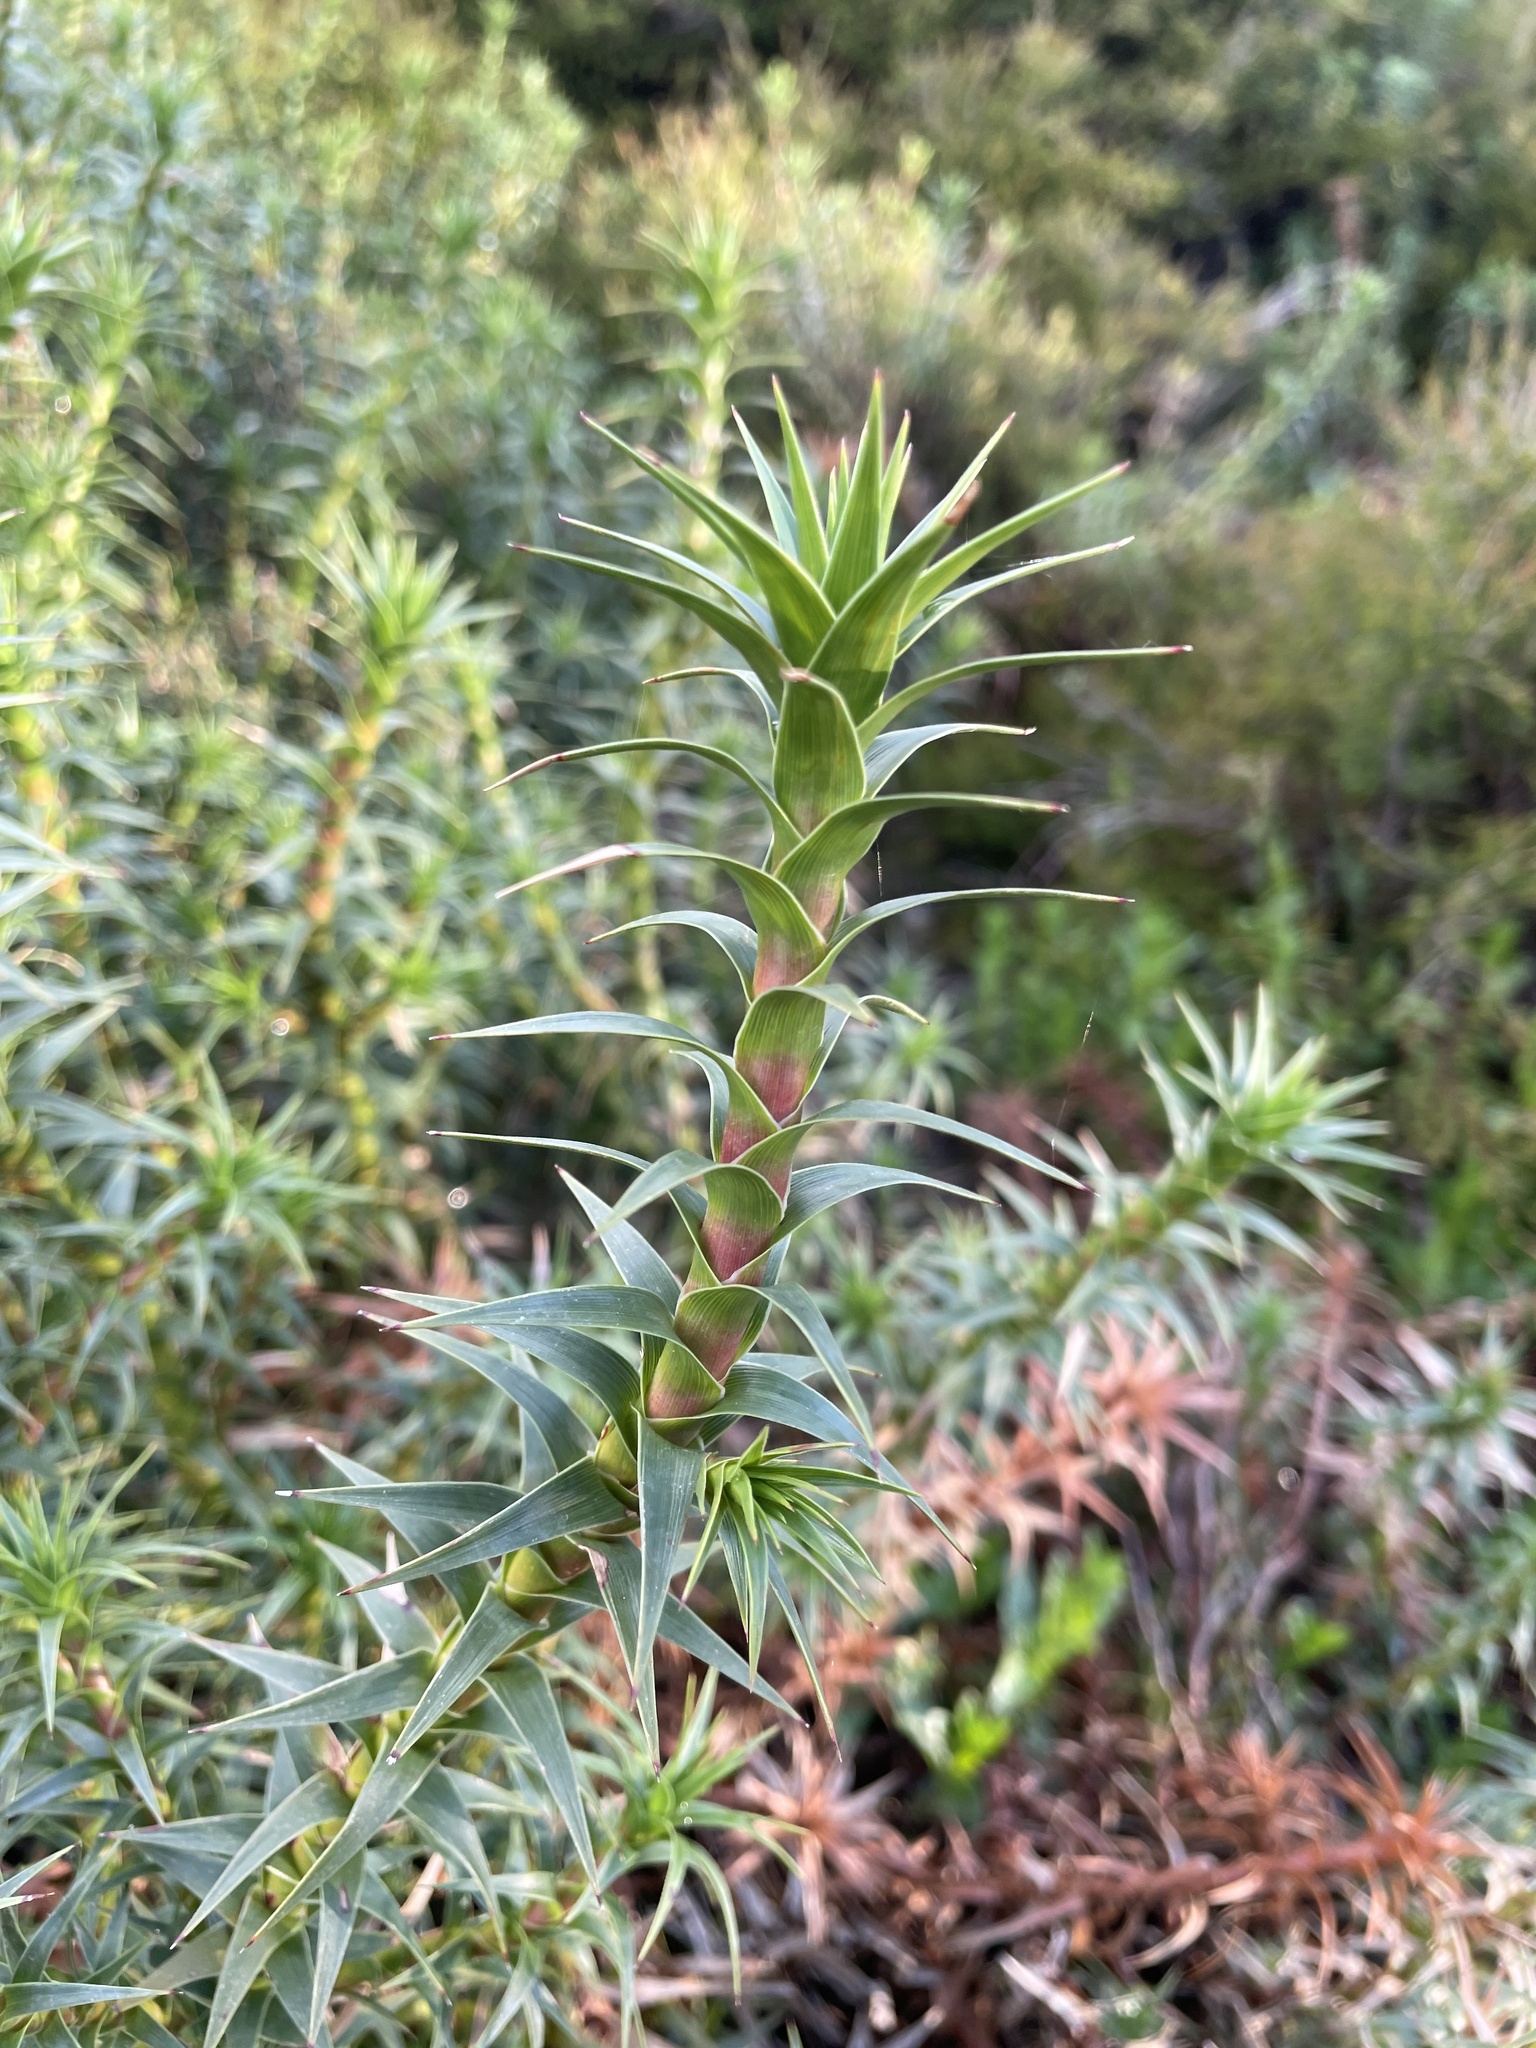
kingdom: Plantae
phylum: Tracheophyta
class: Magnoliopsida
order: Ericales
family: Ericaceae
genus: Dracophyllum
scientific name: Dracophyllum continentis
